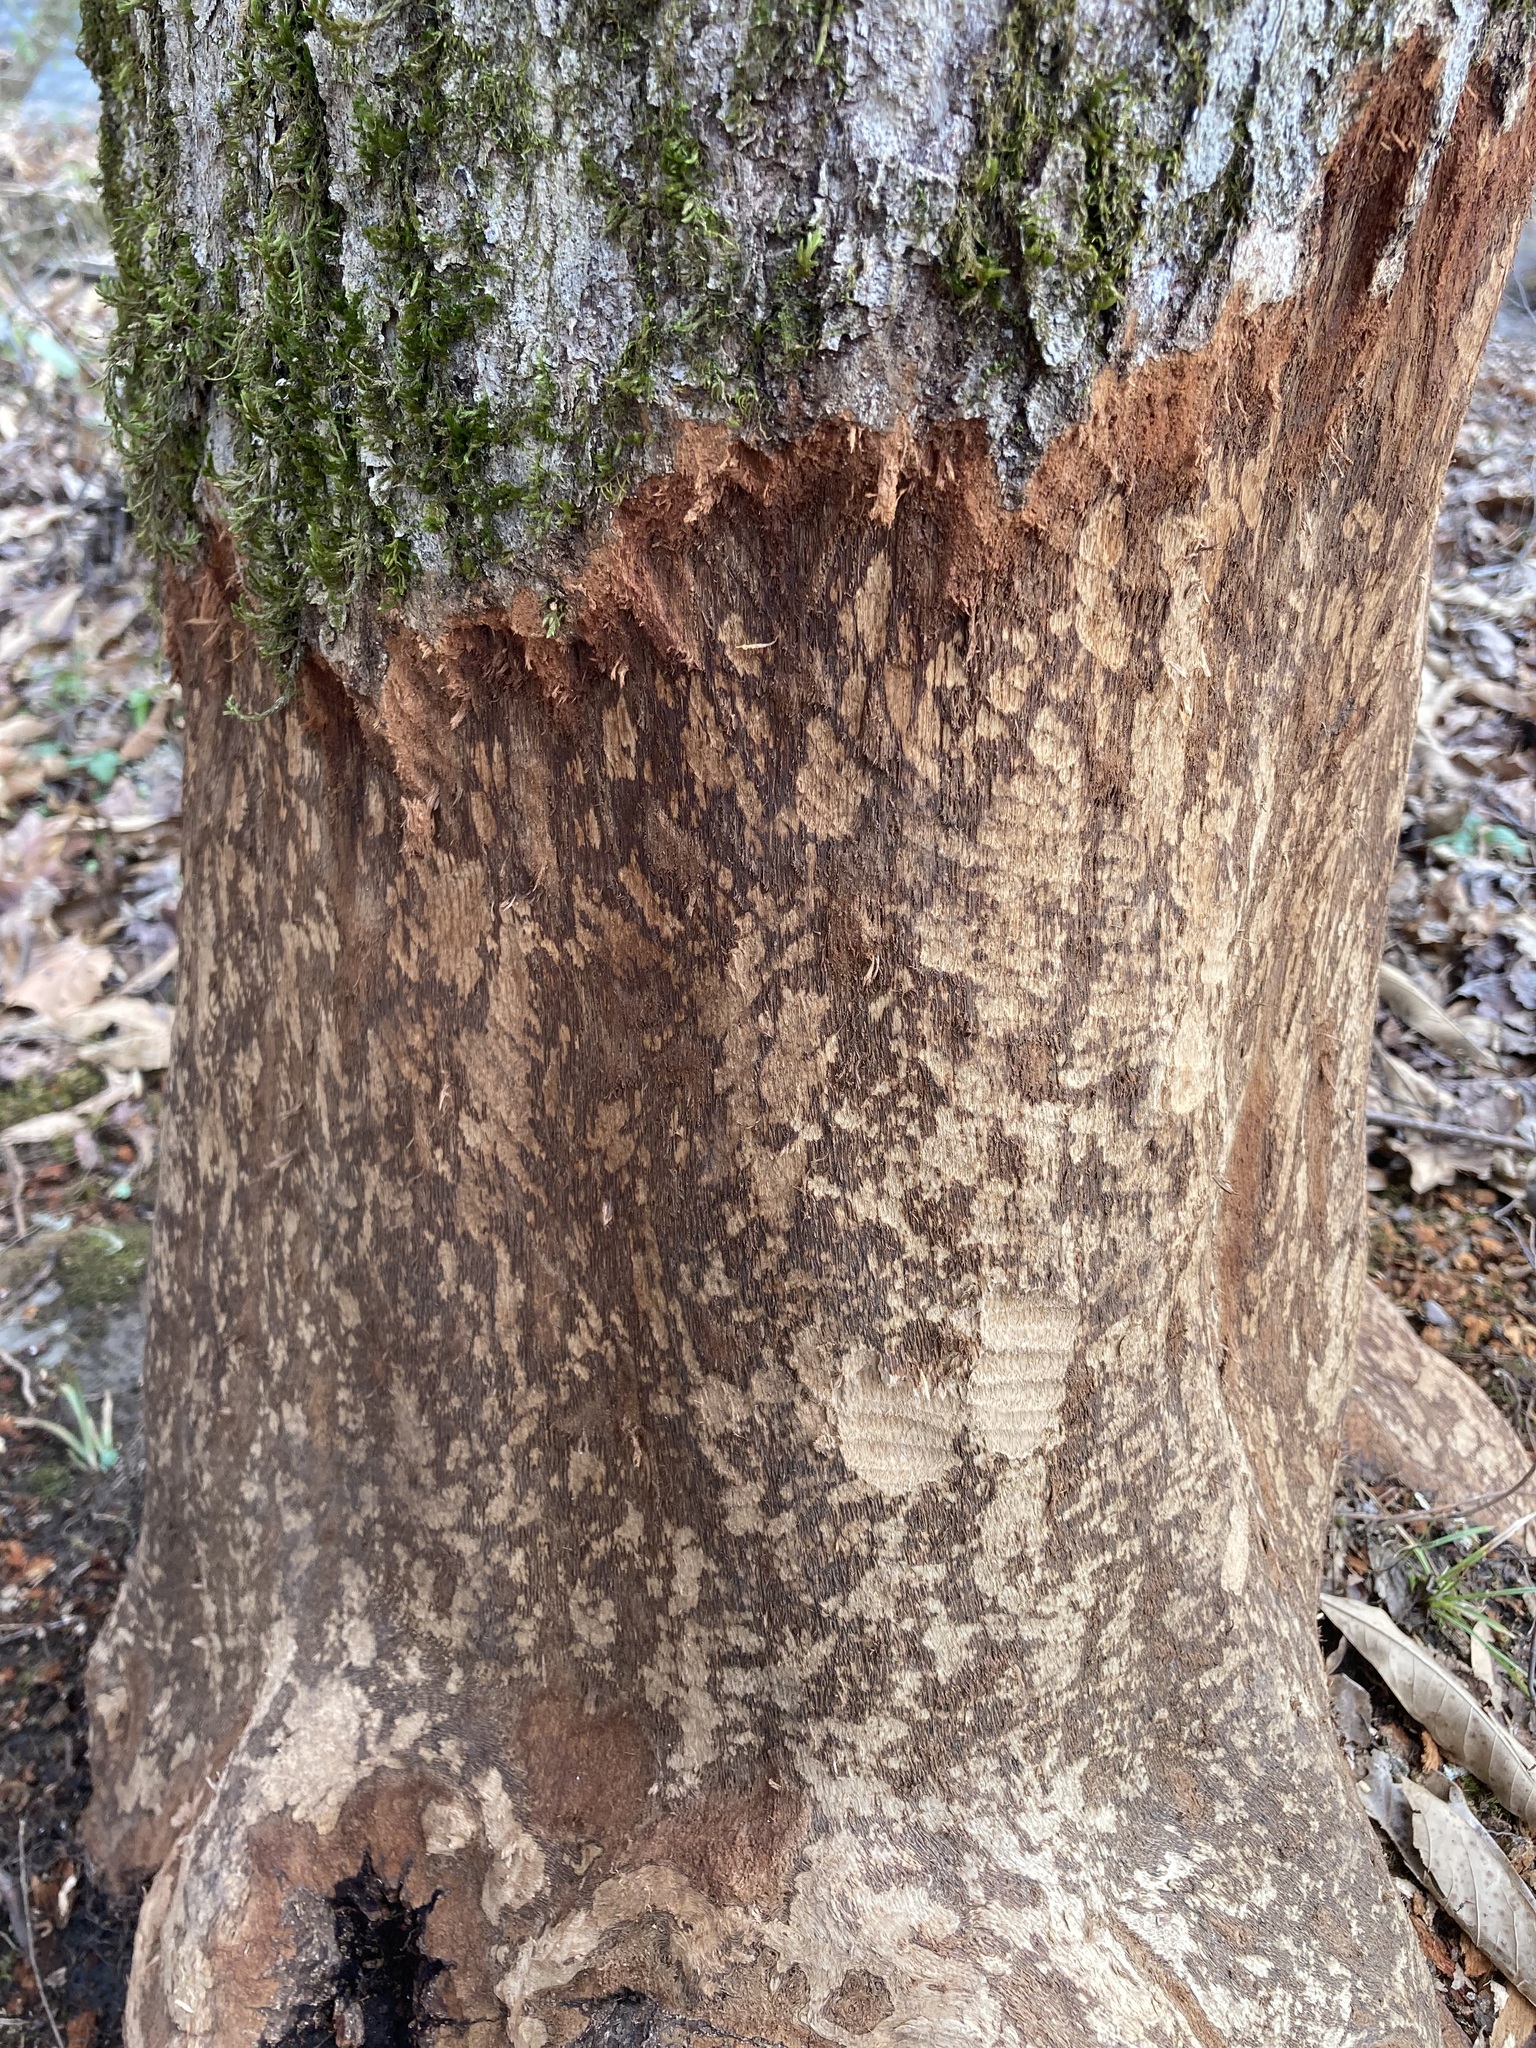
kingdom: Animalia
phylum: Chordata
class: Mammalia
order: Rodentia
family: Castoridae
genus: Castor
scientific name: Castor canadensis
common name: American beaver
